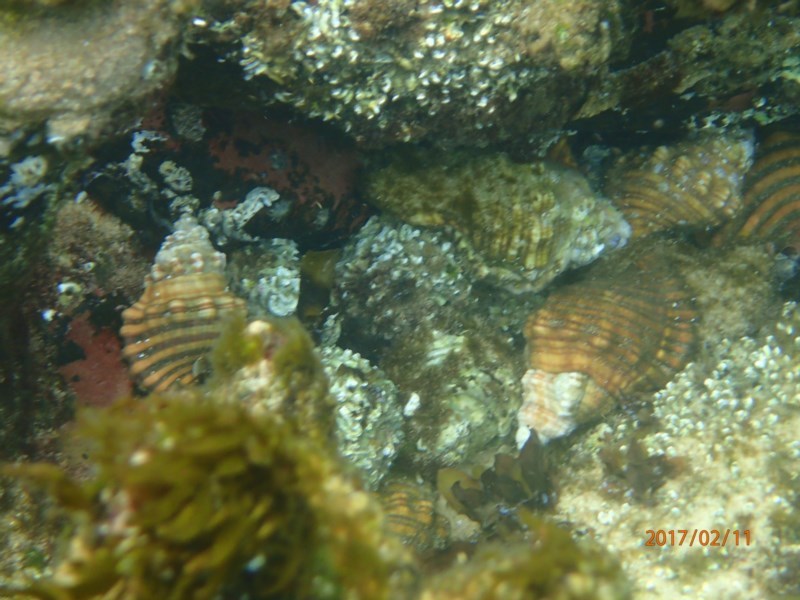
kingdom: Animalia
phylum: Mollusca
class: Gastropoda
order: Littorinimorpha
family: Cymatiidae
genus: Cabestana
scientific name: Cabestana spengleri
